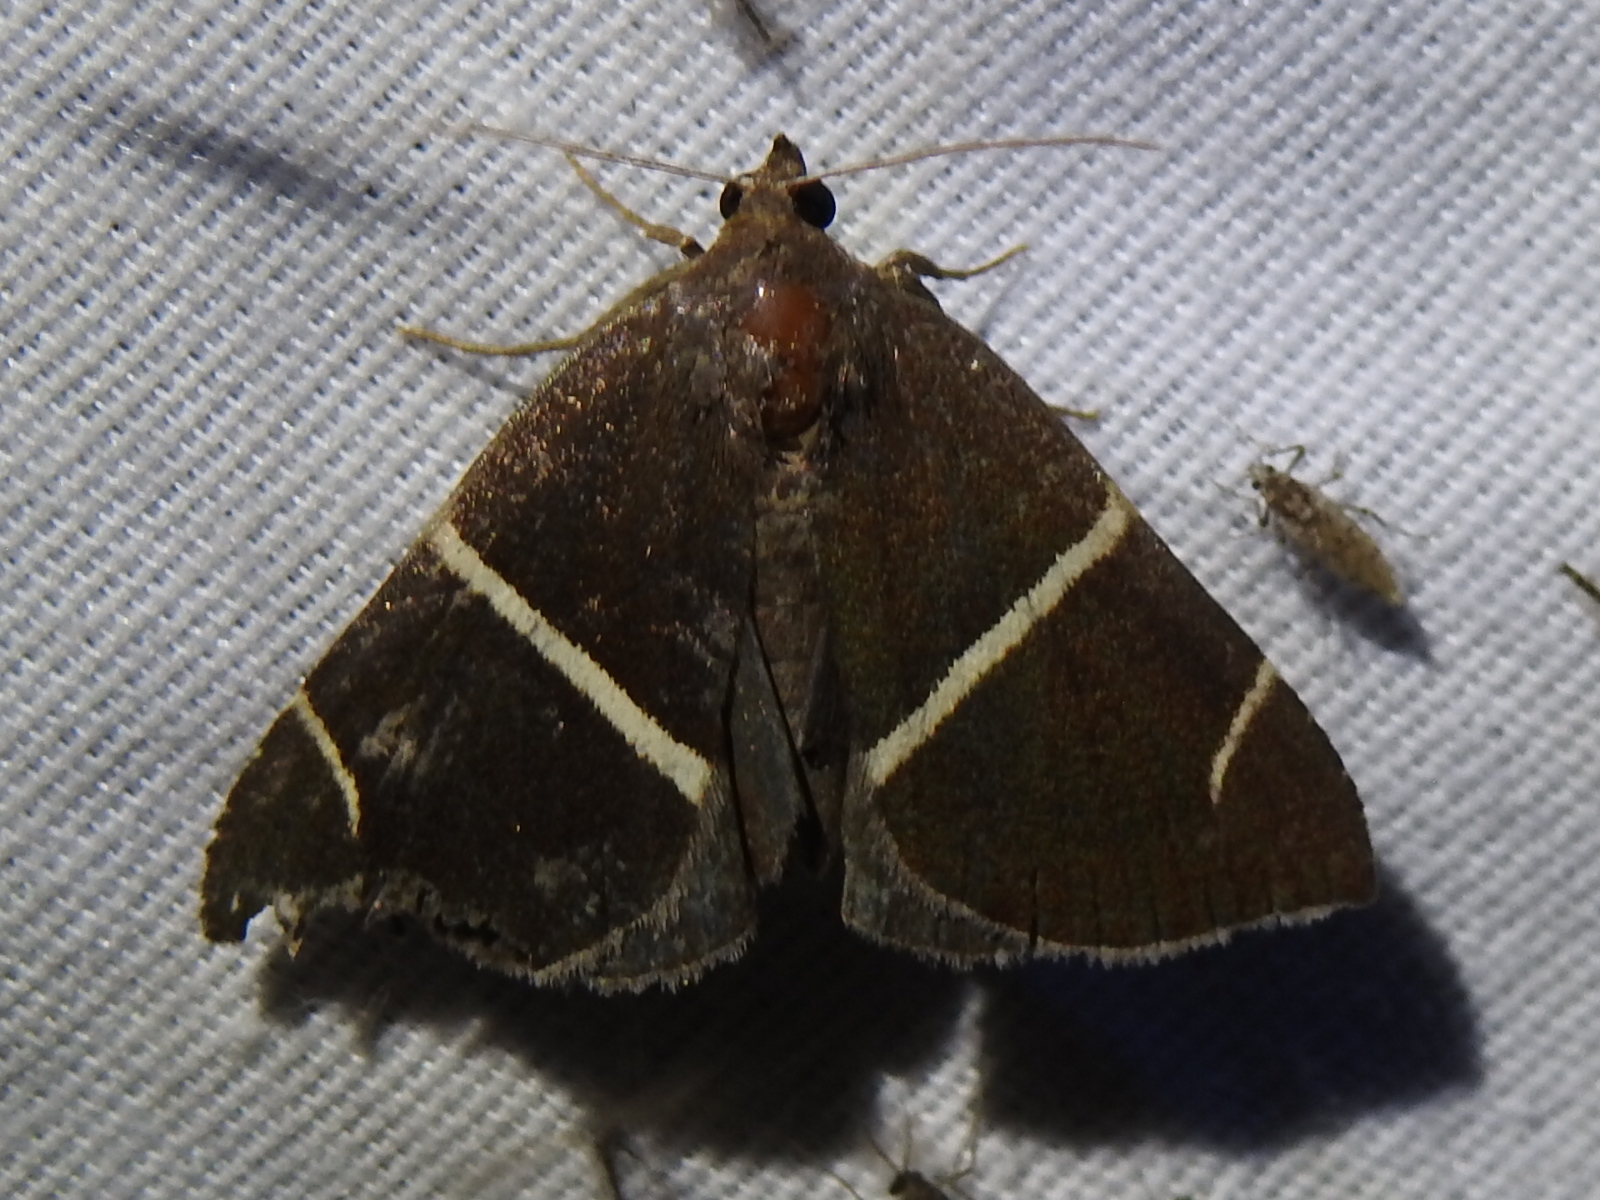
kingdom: Animalia
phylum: Arthropoda
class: Insecta
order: Lepidoptera
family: Erebidae
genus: Argyrostrotis
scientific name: Argyrostrotis anilis
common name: Short-lined chocolate
